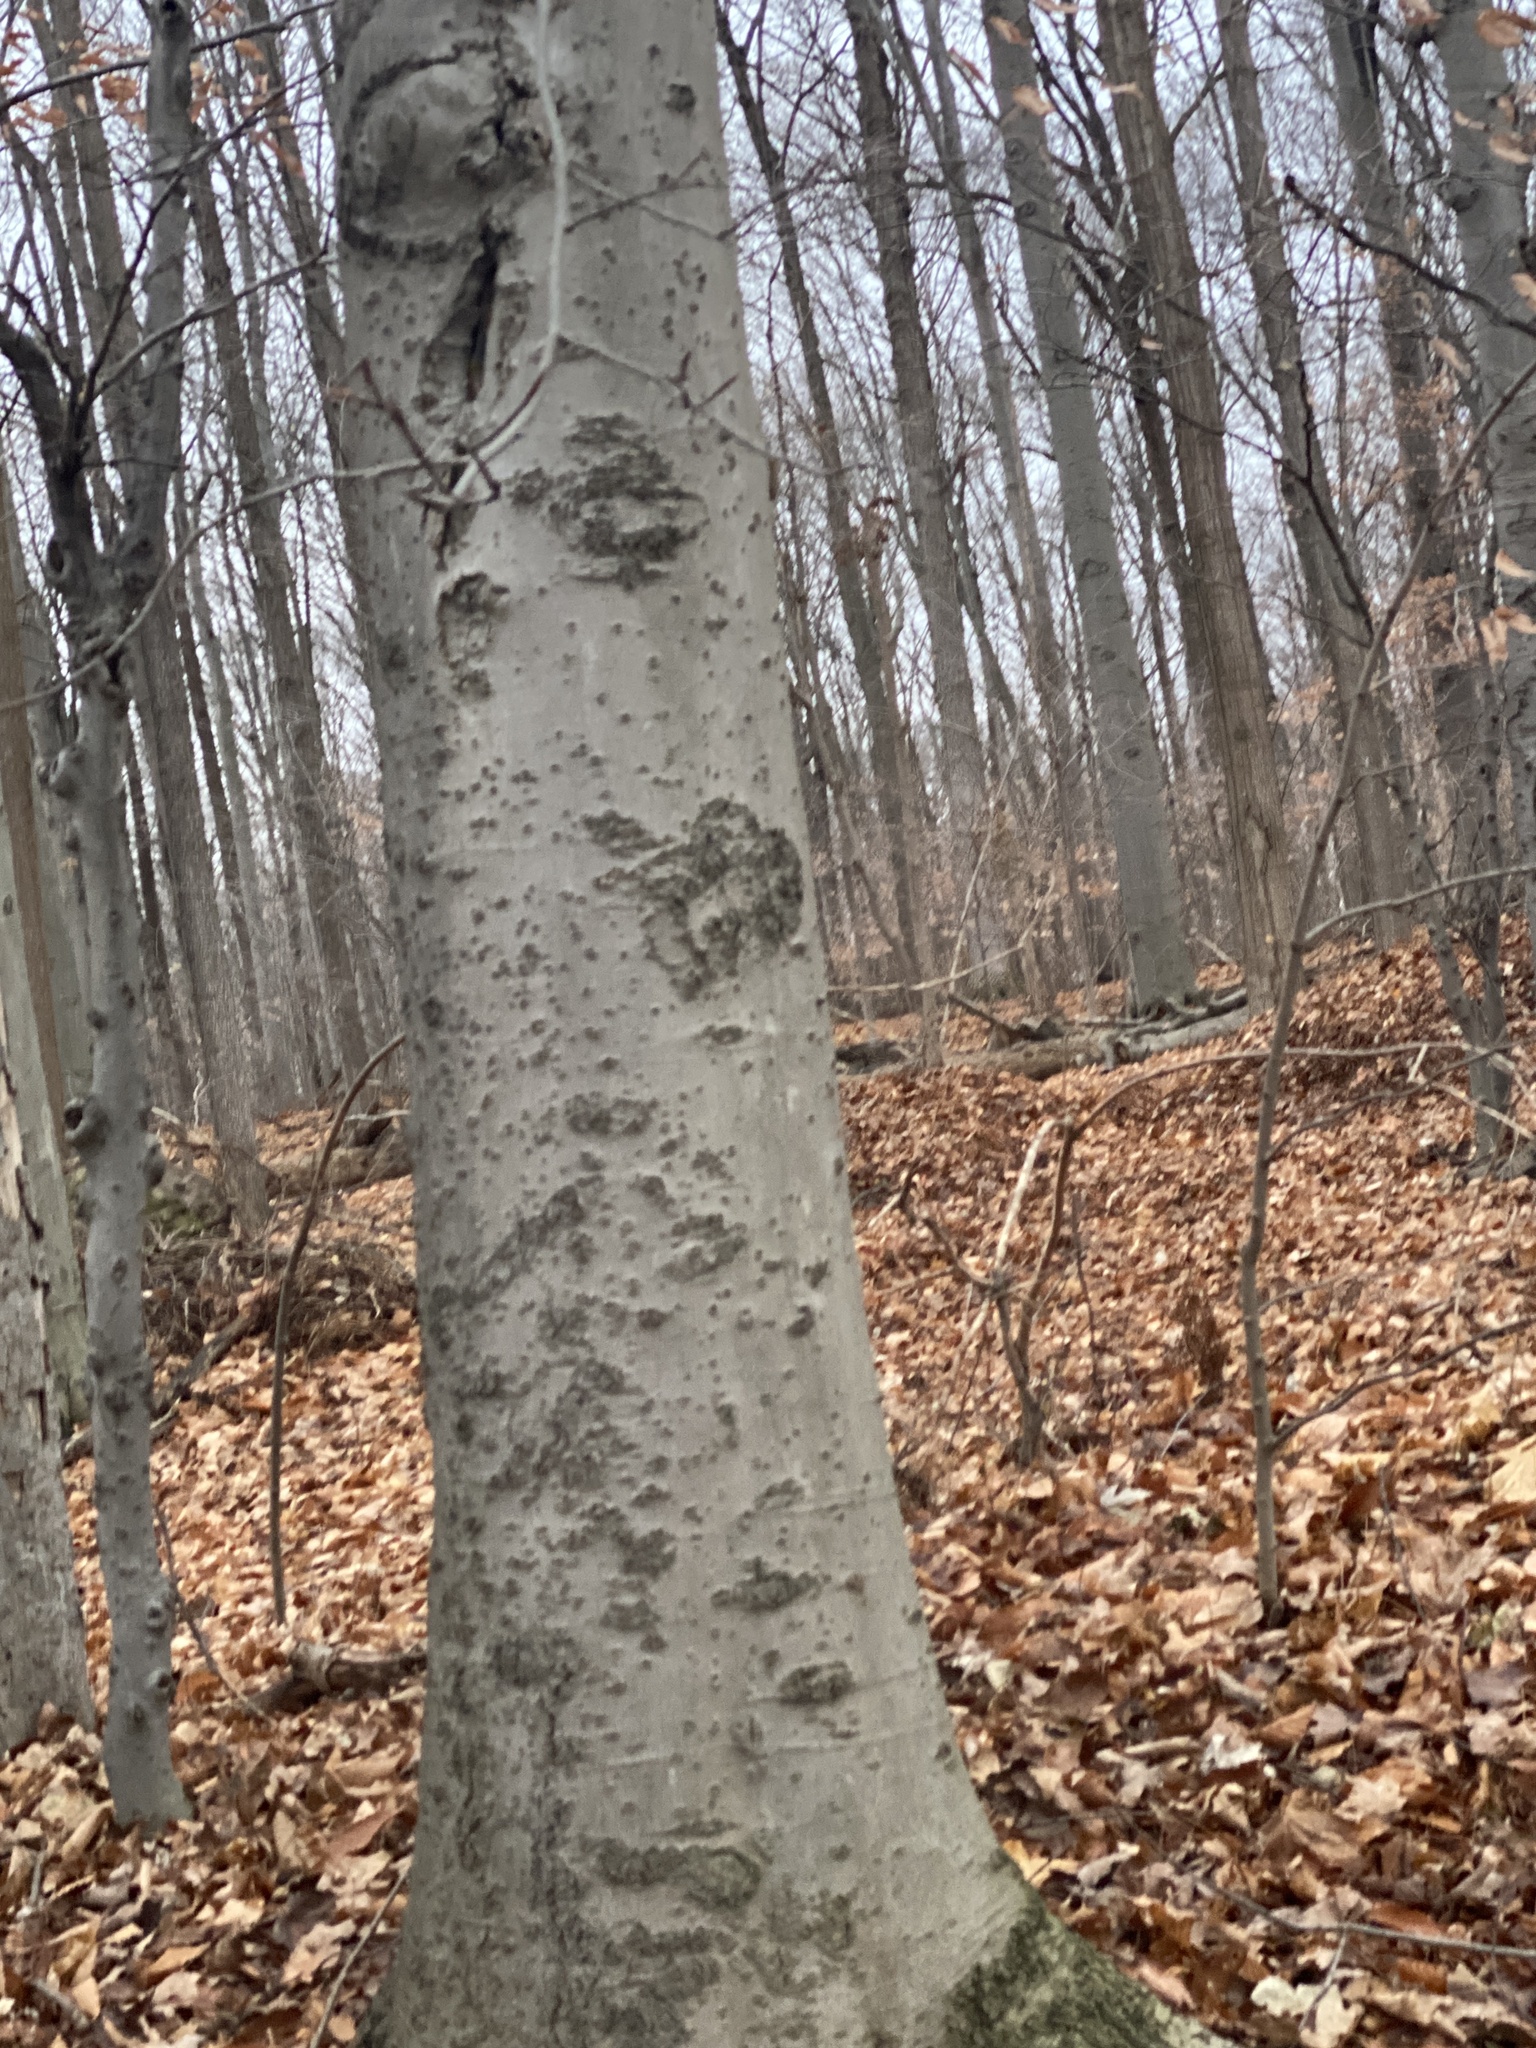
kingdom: Plantae
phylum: Tracheophyta
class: Magnoliopsida
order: Fagales
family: Fagaceae
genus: Fagus
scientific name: Fagus grandifolia
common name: American beech
